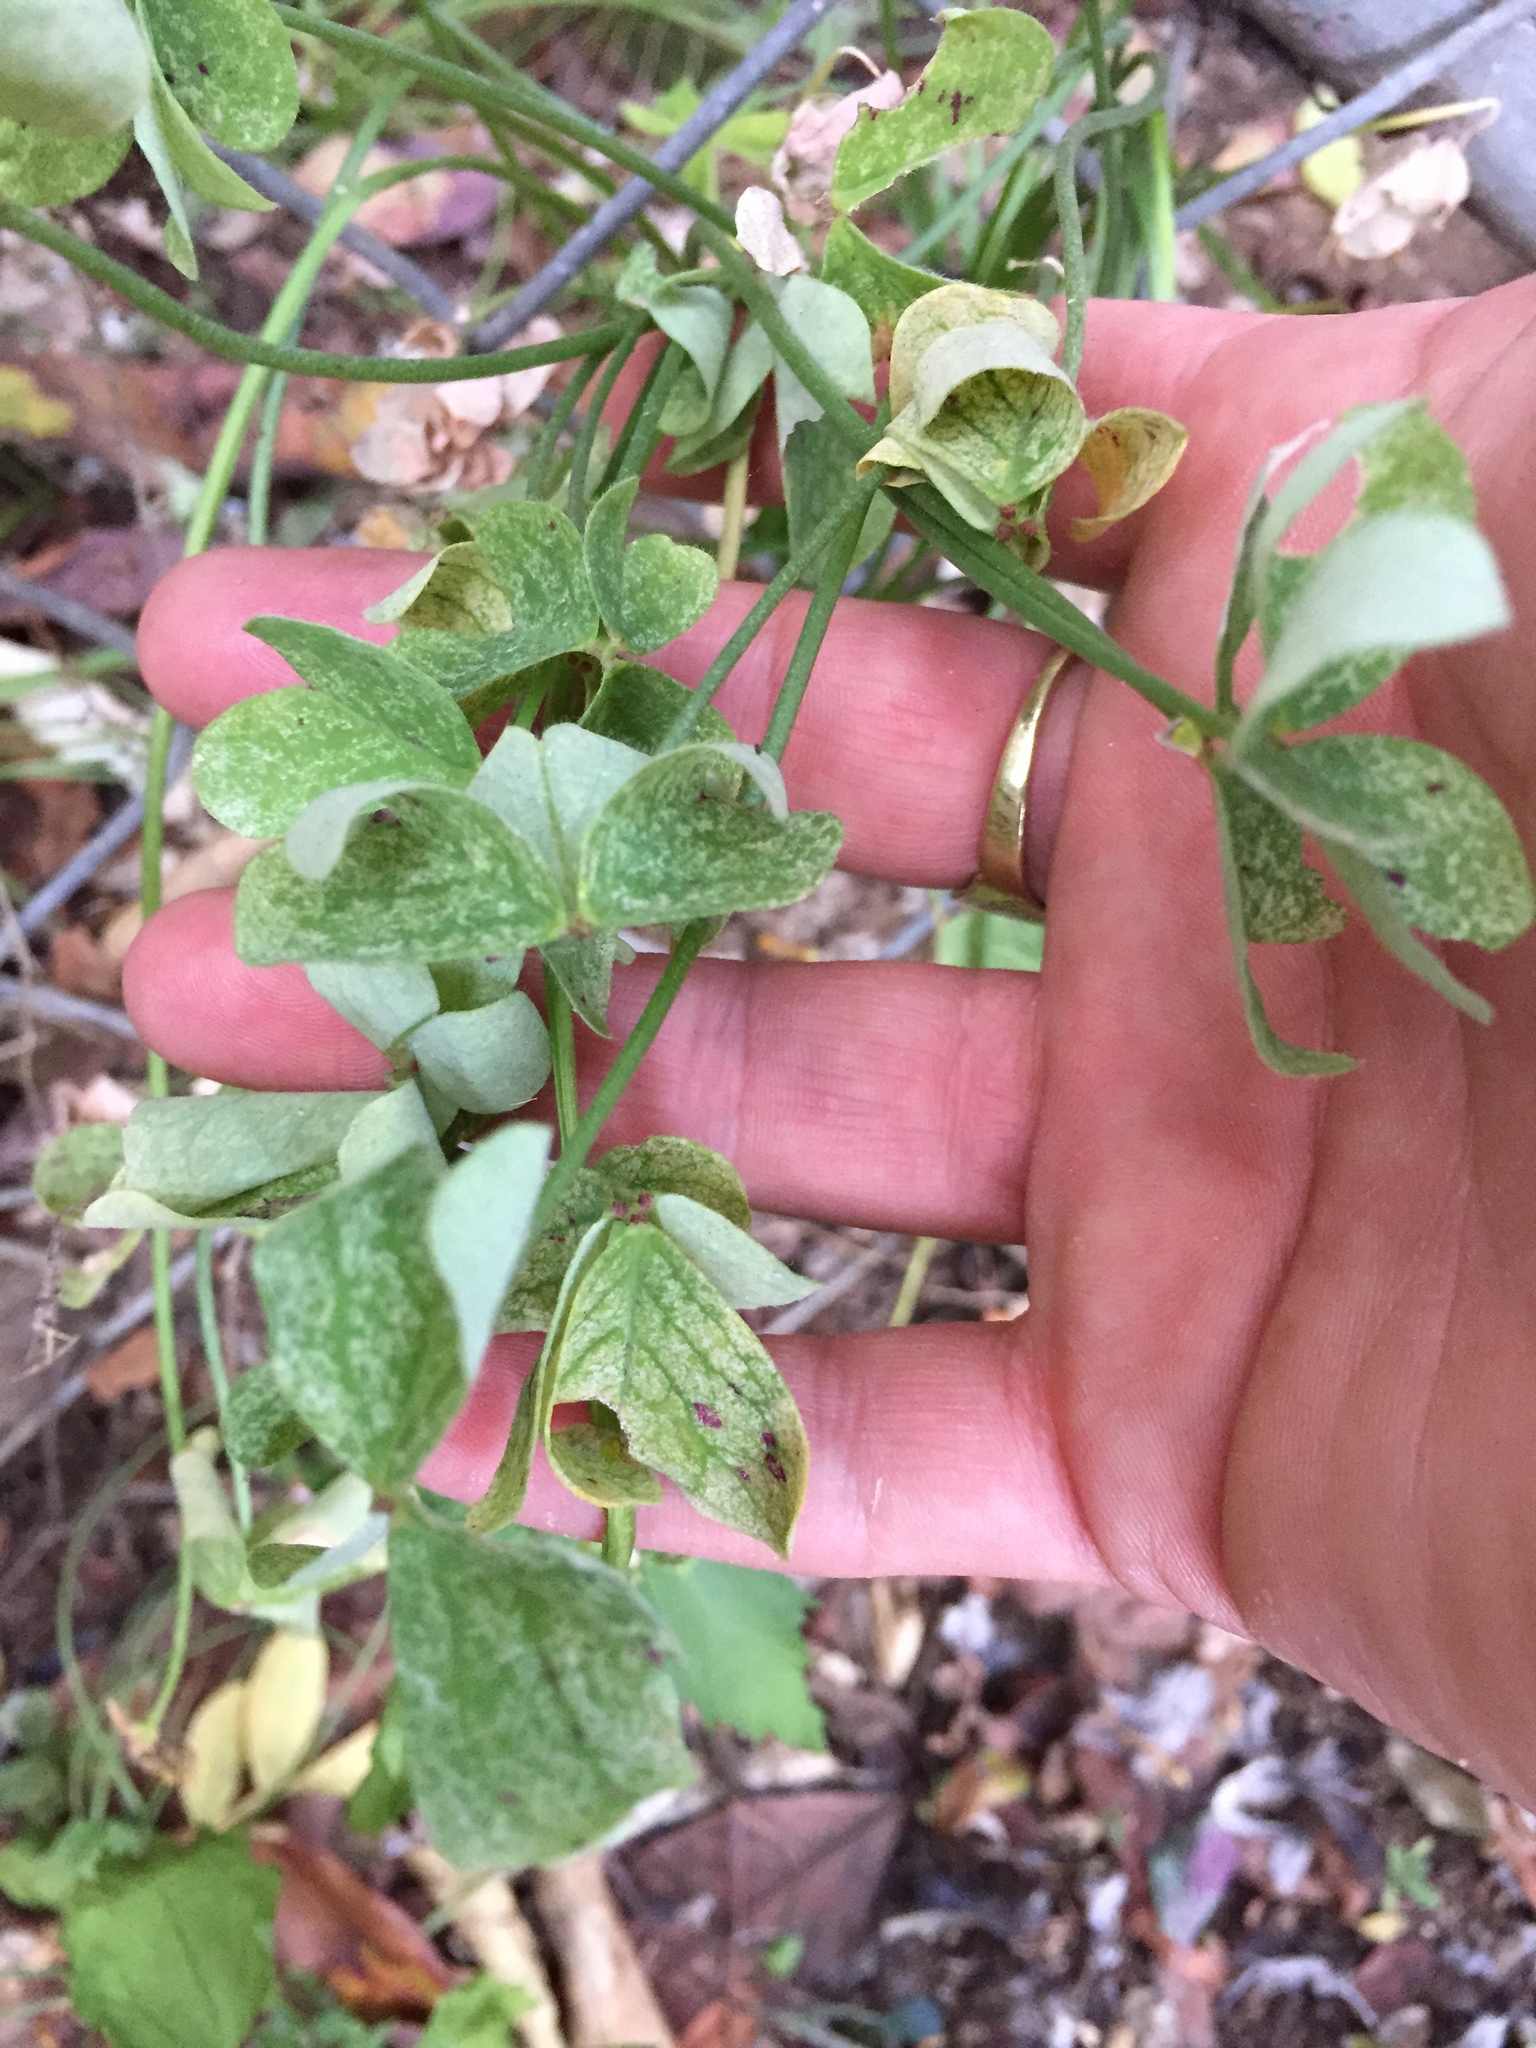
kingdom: Plantae
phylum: Tracheophyta
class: Magnoliopsida
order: Oxalidales
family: Oxalidaceae
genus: Oxalis
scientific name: Oxalis pes-caprae
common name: Bermuda-buttercup
